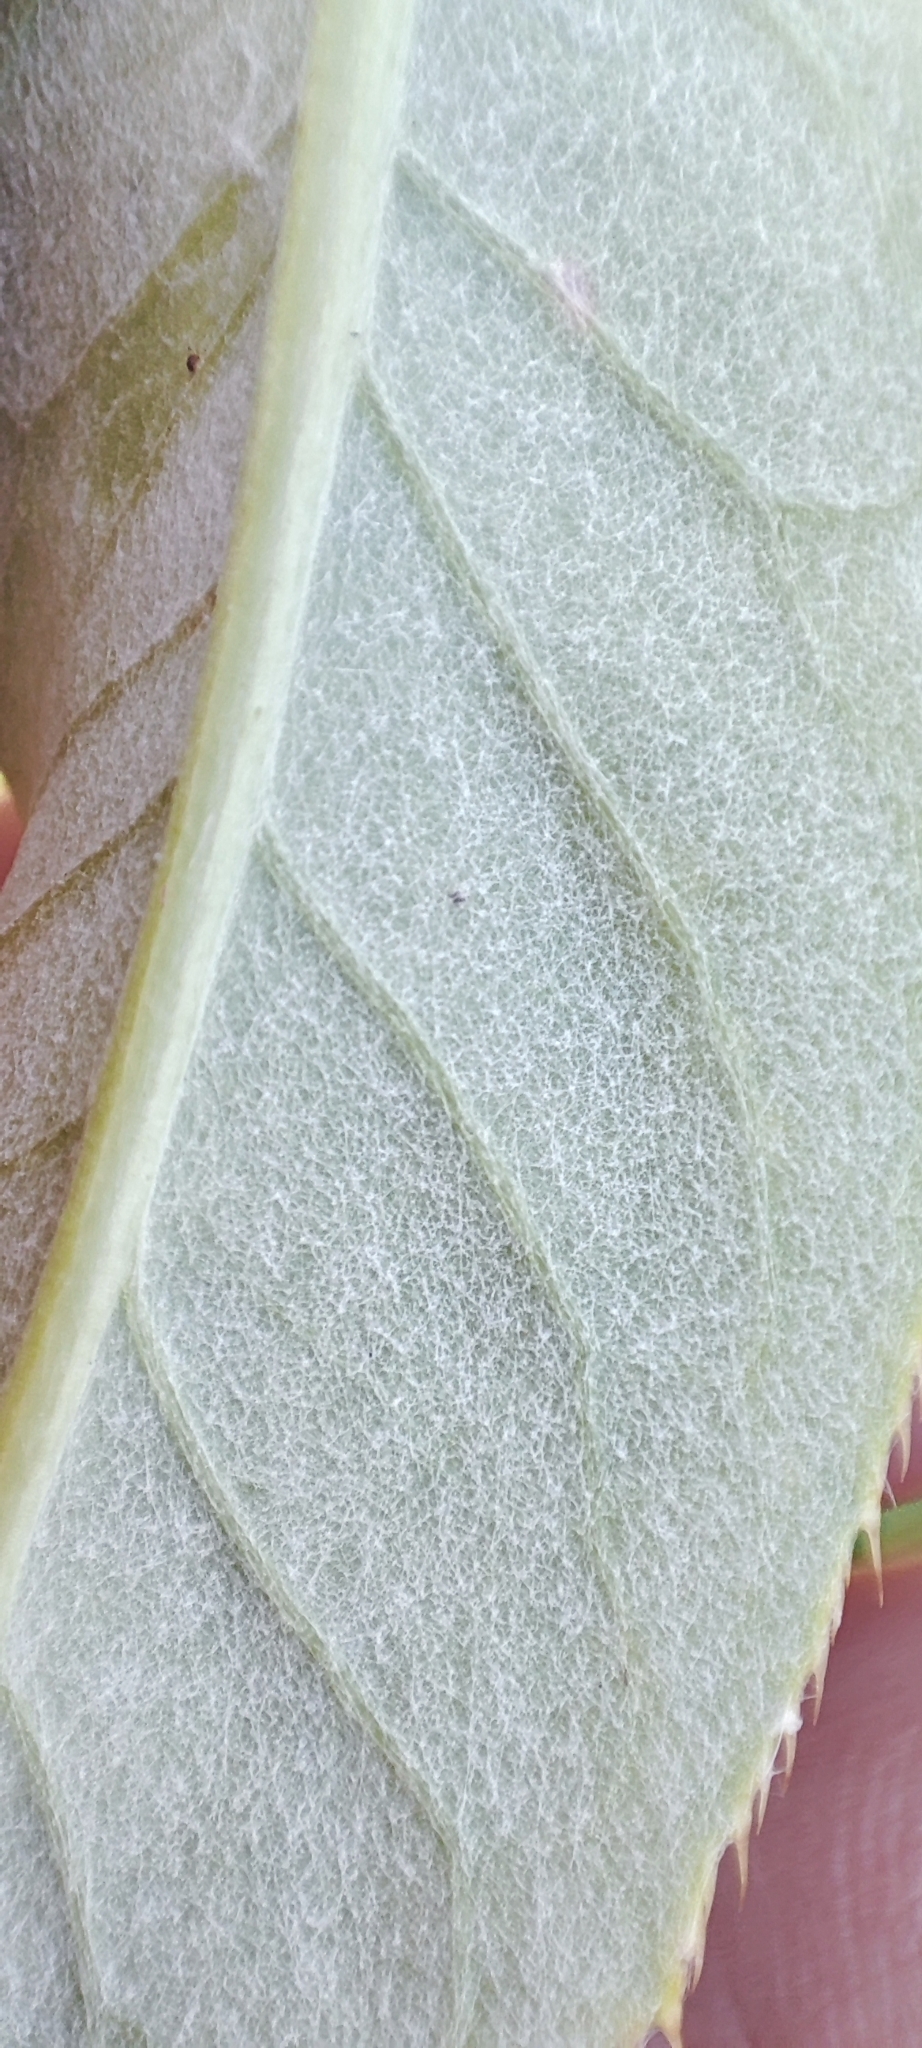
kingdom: Plantae
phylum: Tracheophyta
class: Magnoliopsida
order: Asterales
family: Asteraceae
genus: Cirsium
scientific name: Cirsium arvense
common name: Creeping thistle
